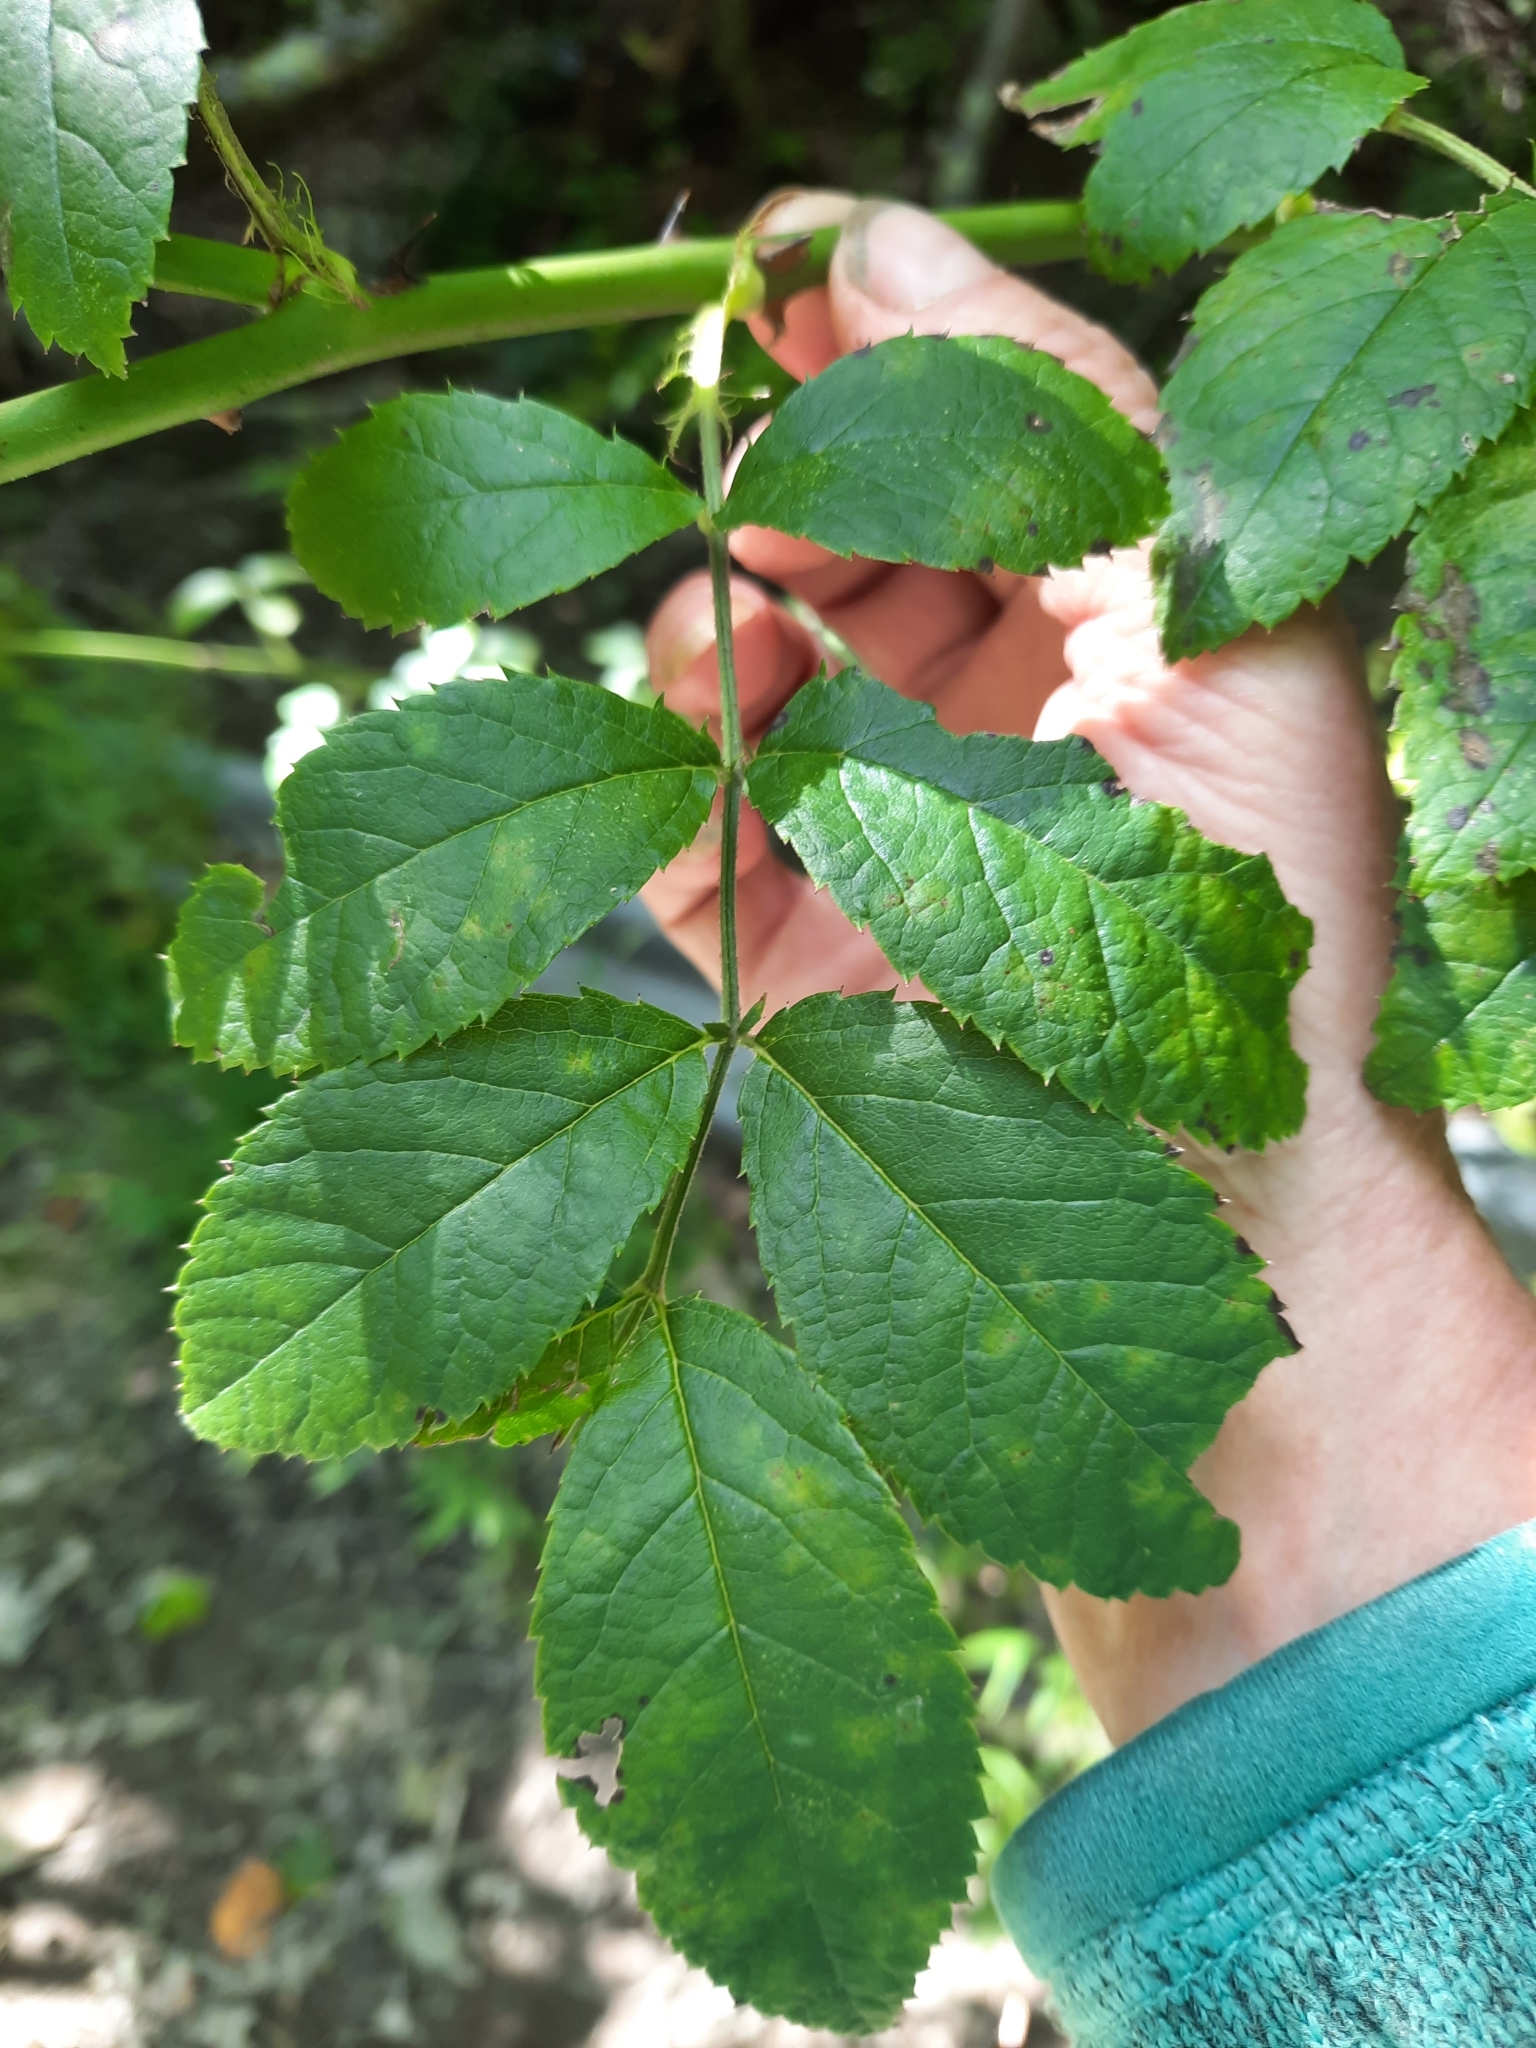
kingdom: Plantae
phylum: Tracheophyta
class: Magnoliopsida
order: Rosales
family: Rosaceae
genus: Rosa
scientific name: Rosa multiflora
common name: Multiflora rose
